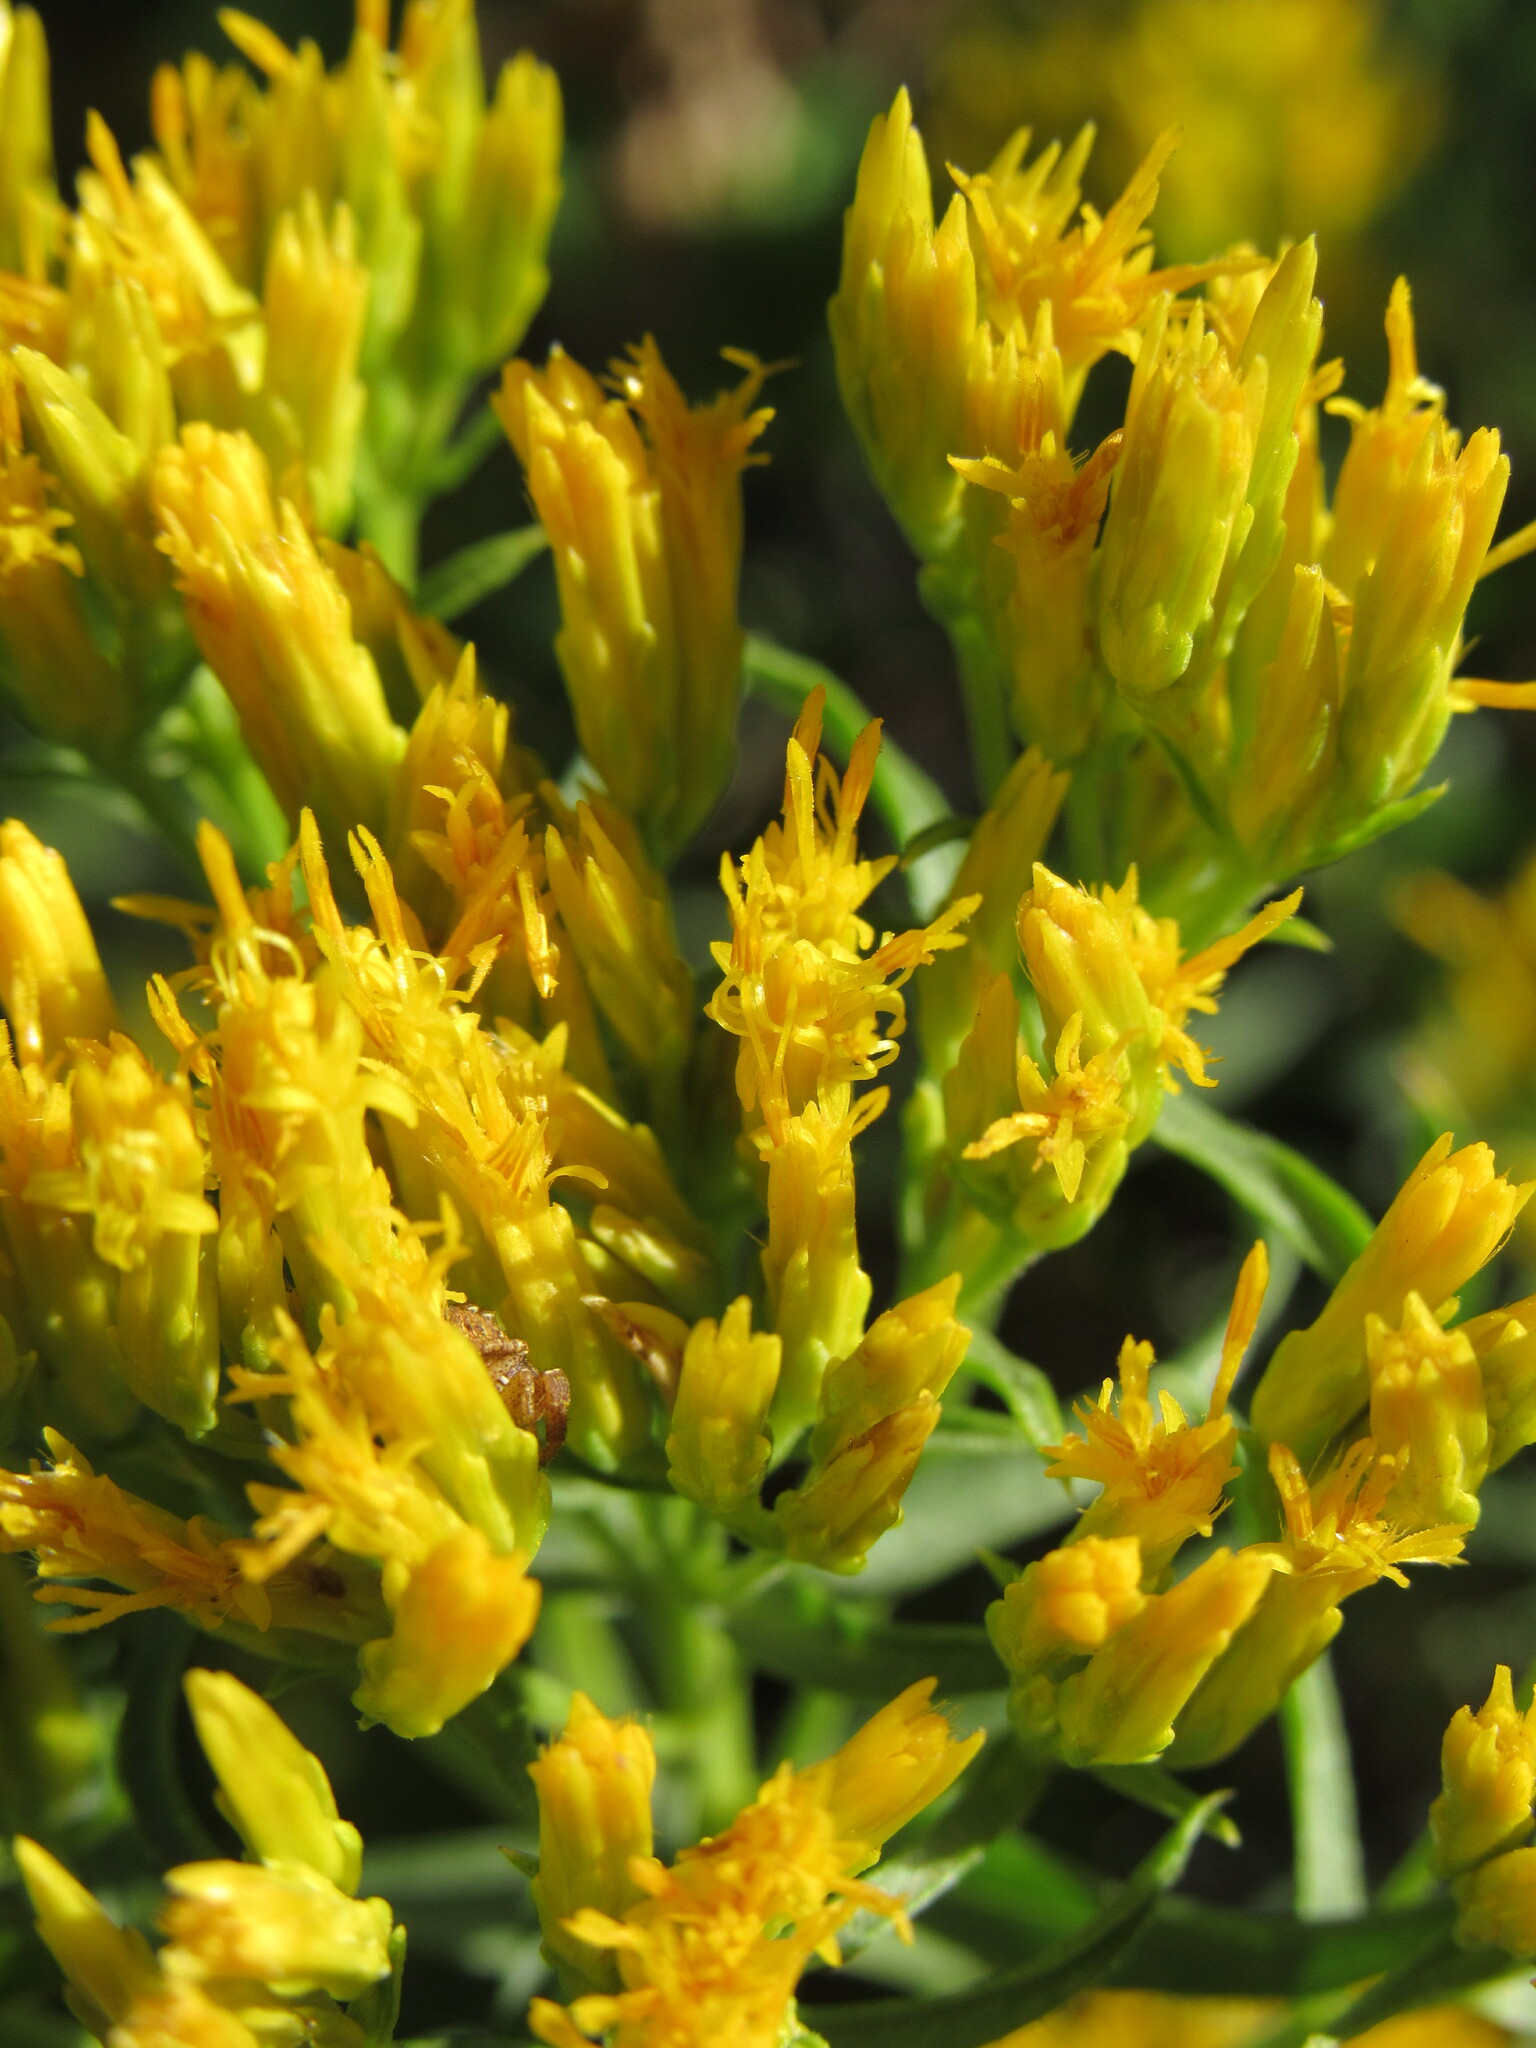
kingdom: Plantae
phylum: Tracheophyta
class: Magnoliopsida
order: Asterales
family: Asteraceae
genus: Chrysothamnus
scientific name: Chrysothamnus viscidiflorus
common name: Yellow rabbitbrush
